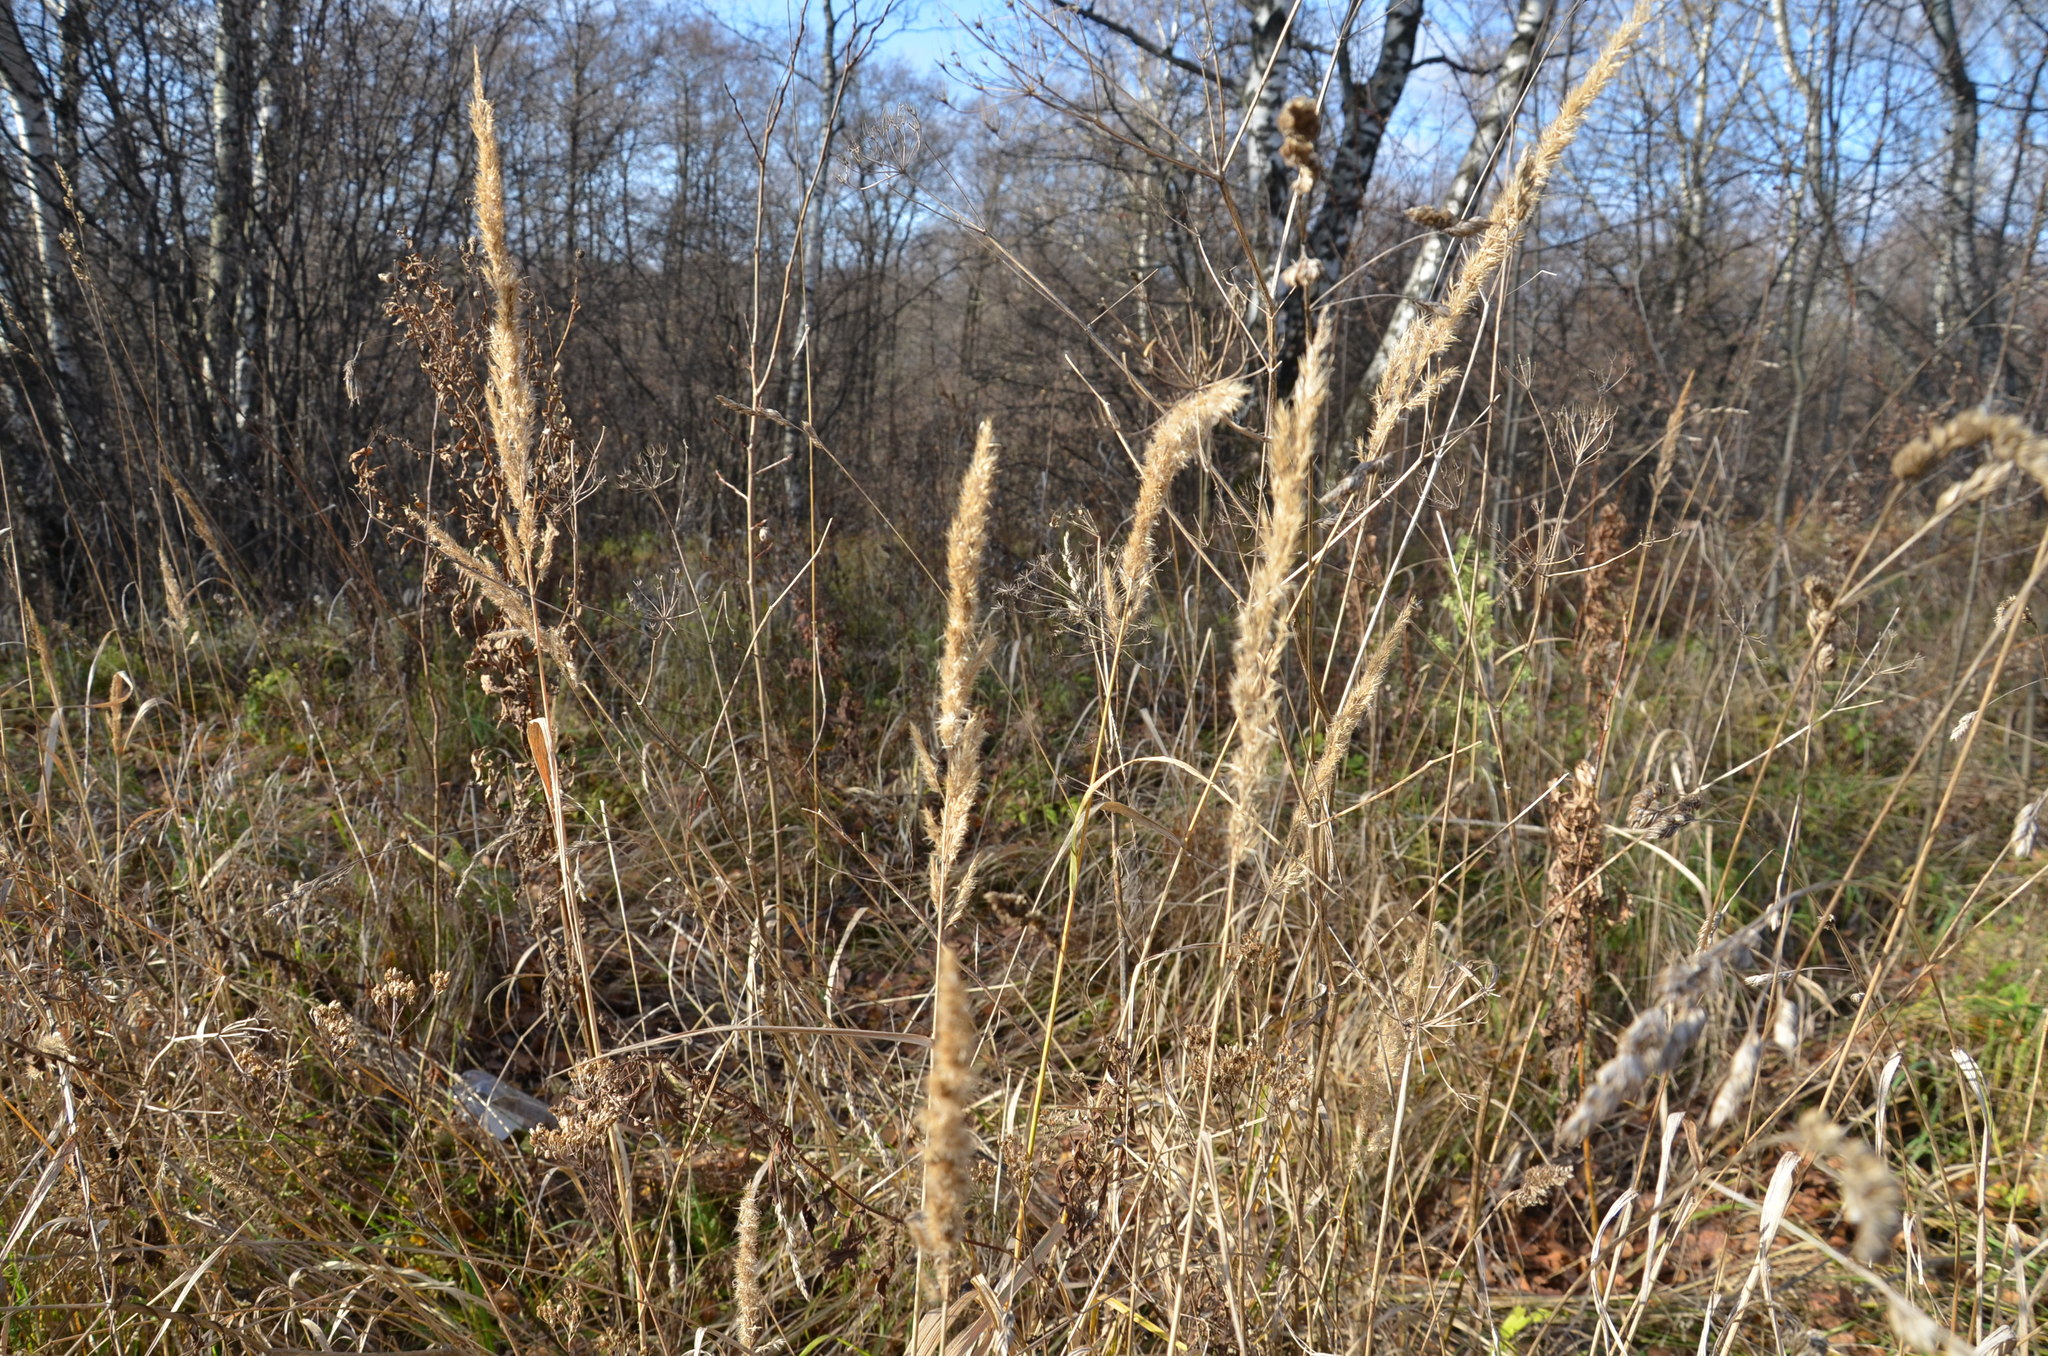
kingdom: Plantae
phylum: Tracheophyta
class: Liliopsida
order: Poales
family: Poaceae
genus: Calamagrostis
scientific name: Calamagrostis epigejos
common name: Wood small-reed
